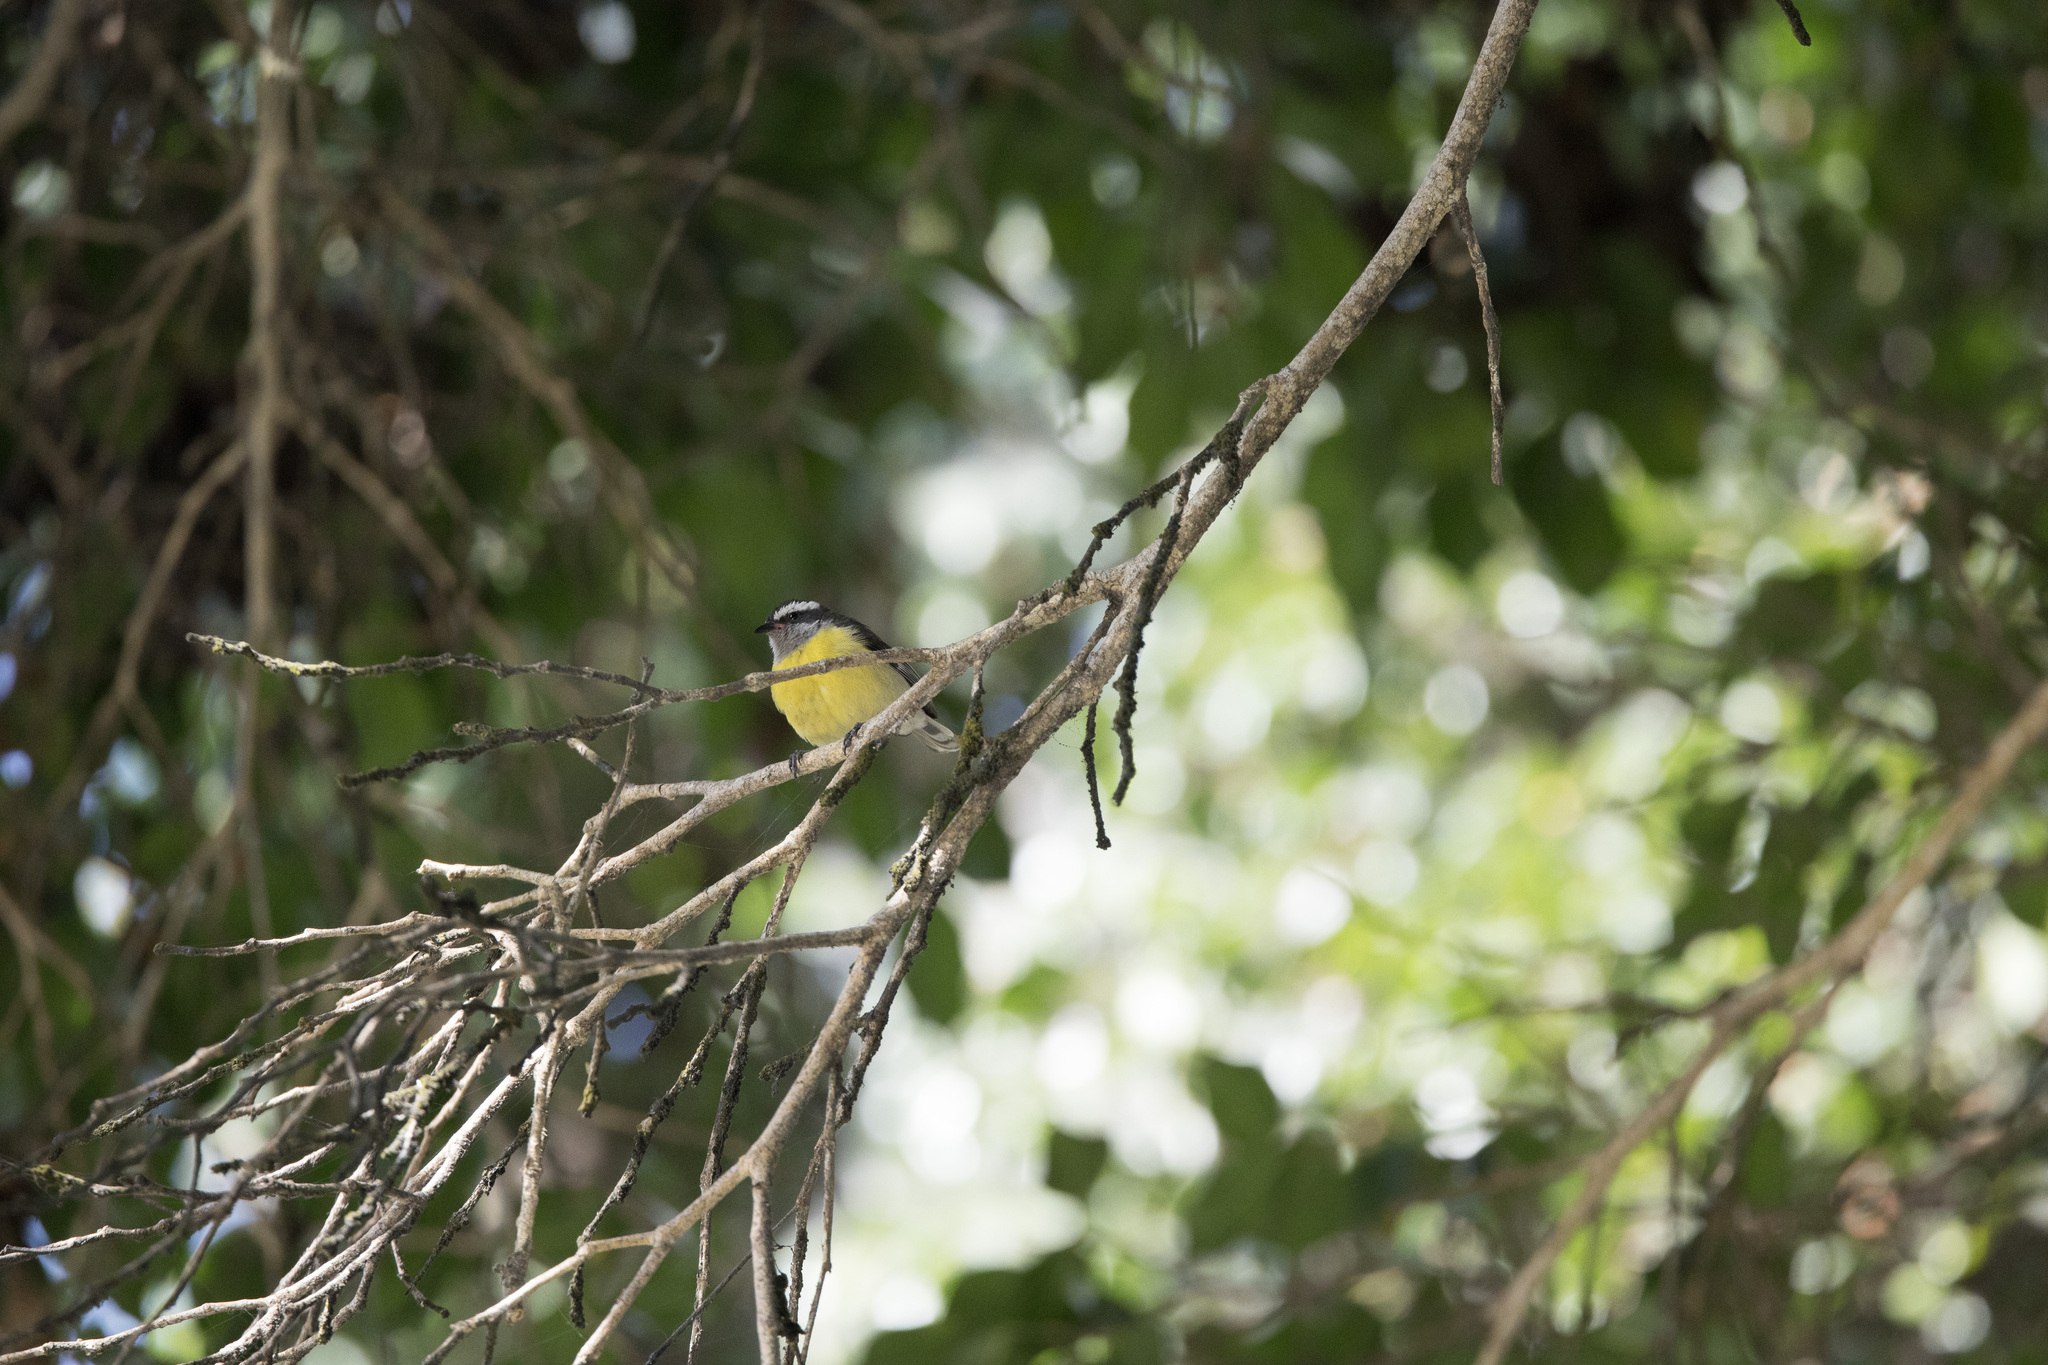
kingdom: Animalia
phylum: Chordata
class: Aves
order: Passeriformes
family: Thraupidae
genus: Coereba
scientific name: Coereba flaveola
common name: Bananaquit
